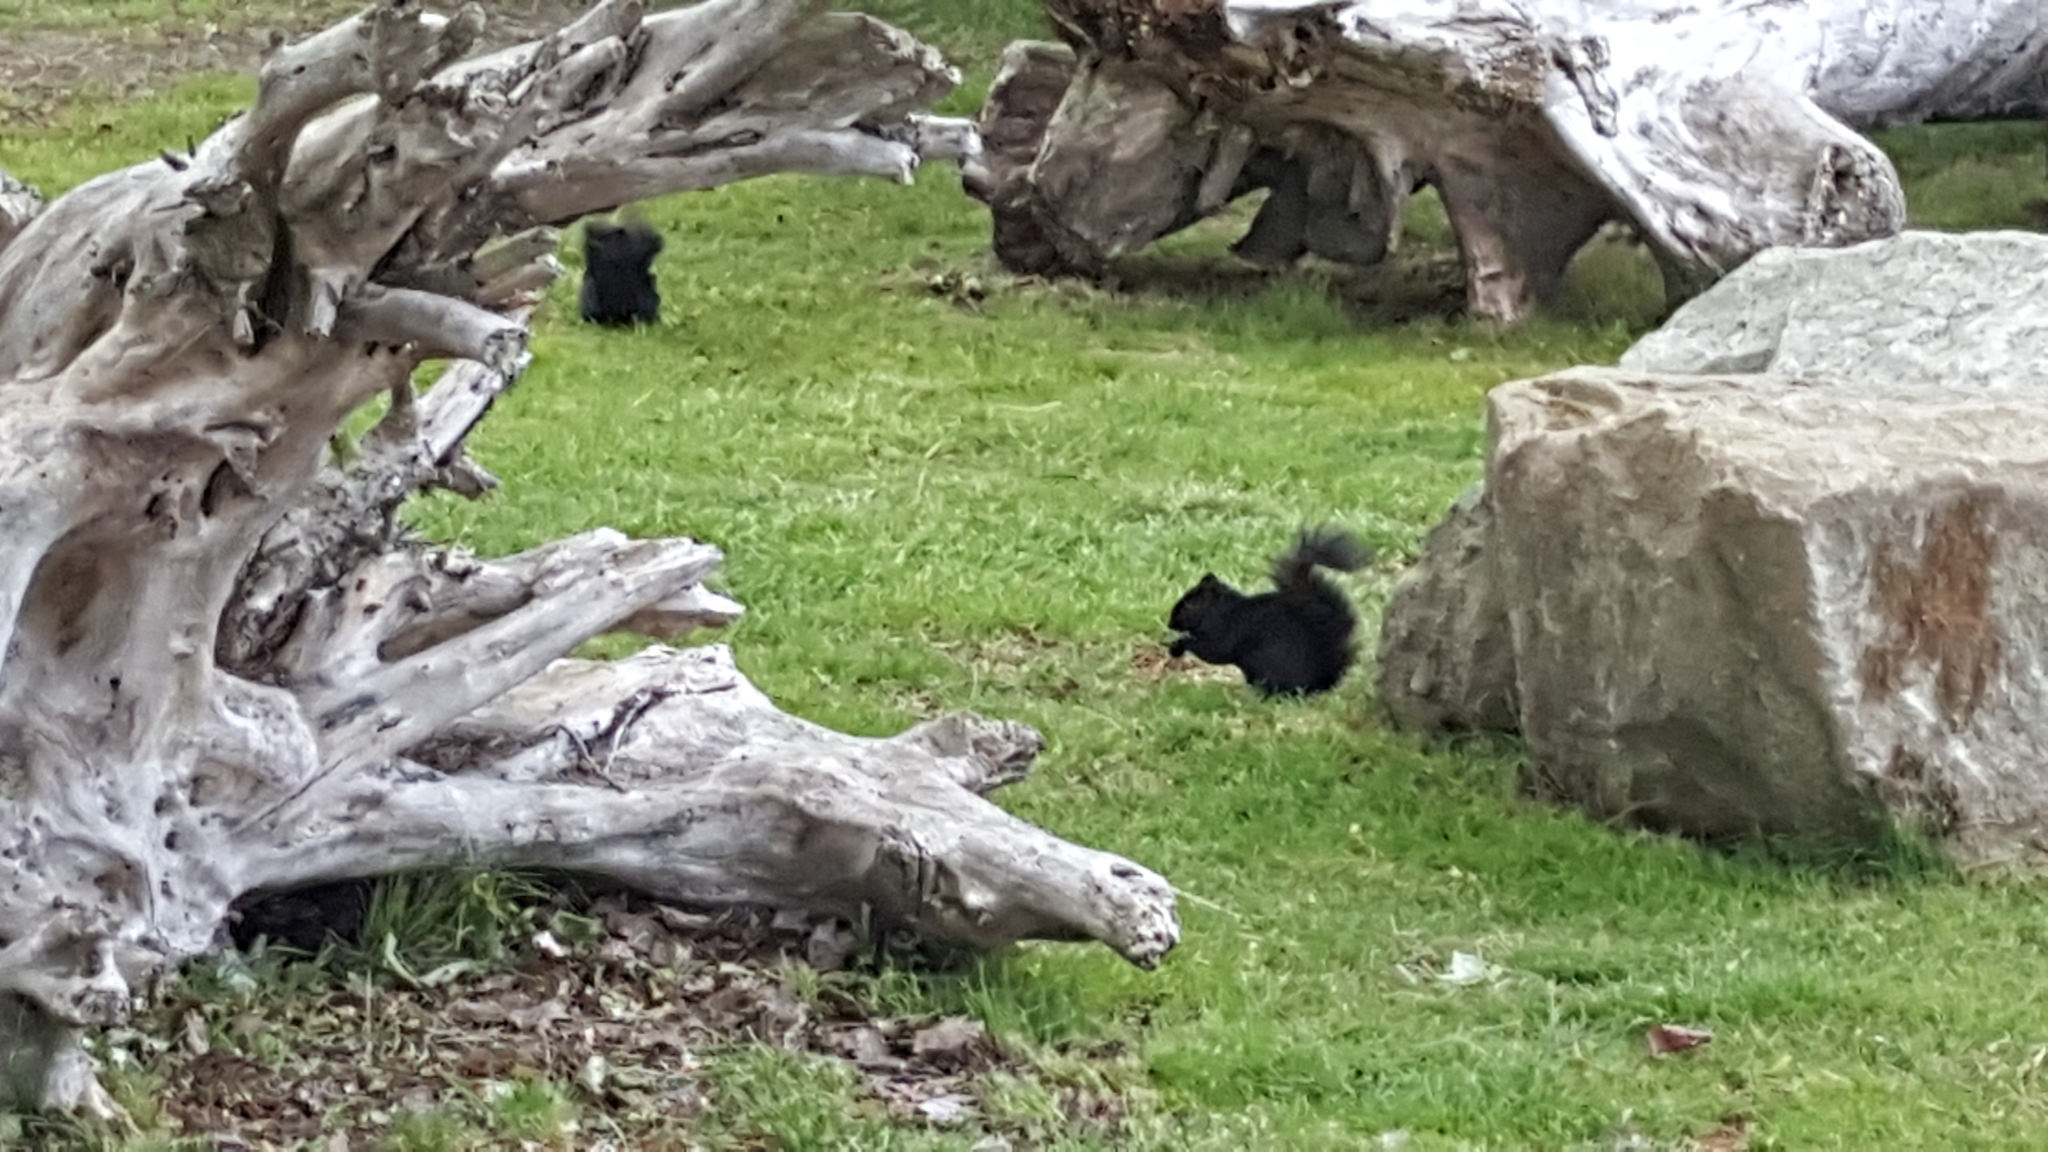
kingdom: Animalia
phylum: Chordata
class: Mammalia
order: Rodentia
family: Sciuridae
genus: Sciurus
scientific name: Sciurus carolinensis
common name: Eastern gray squirrel
